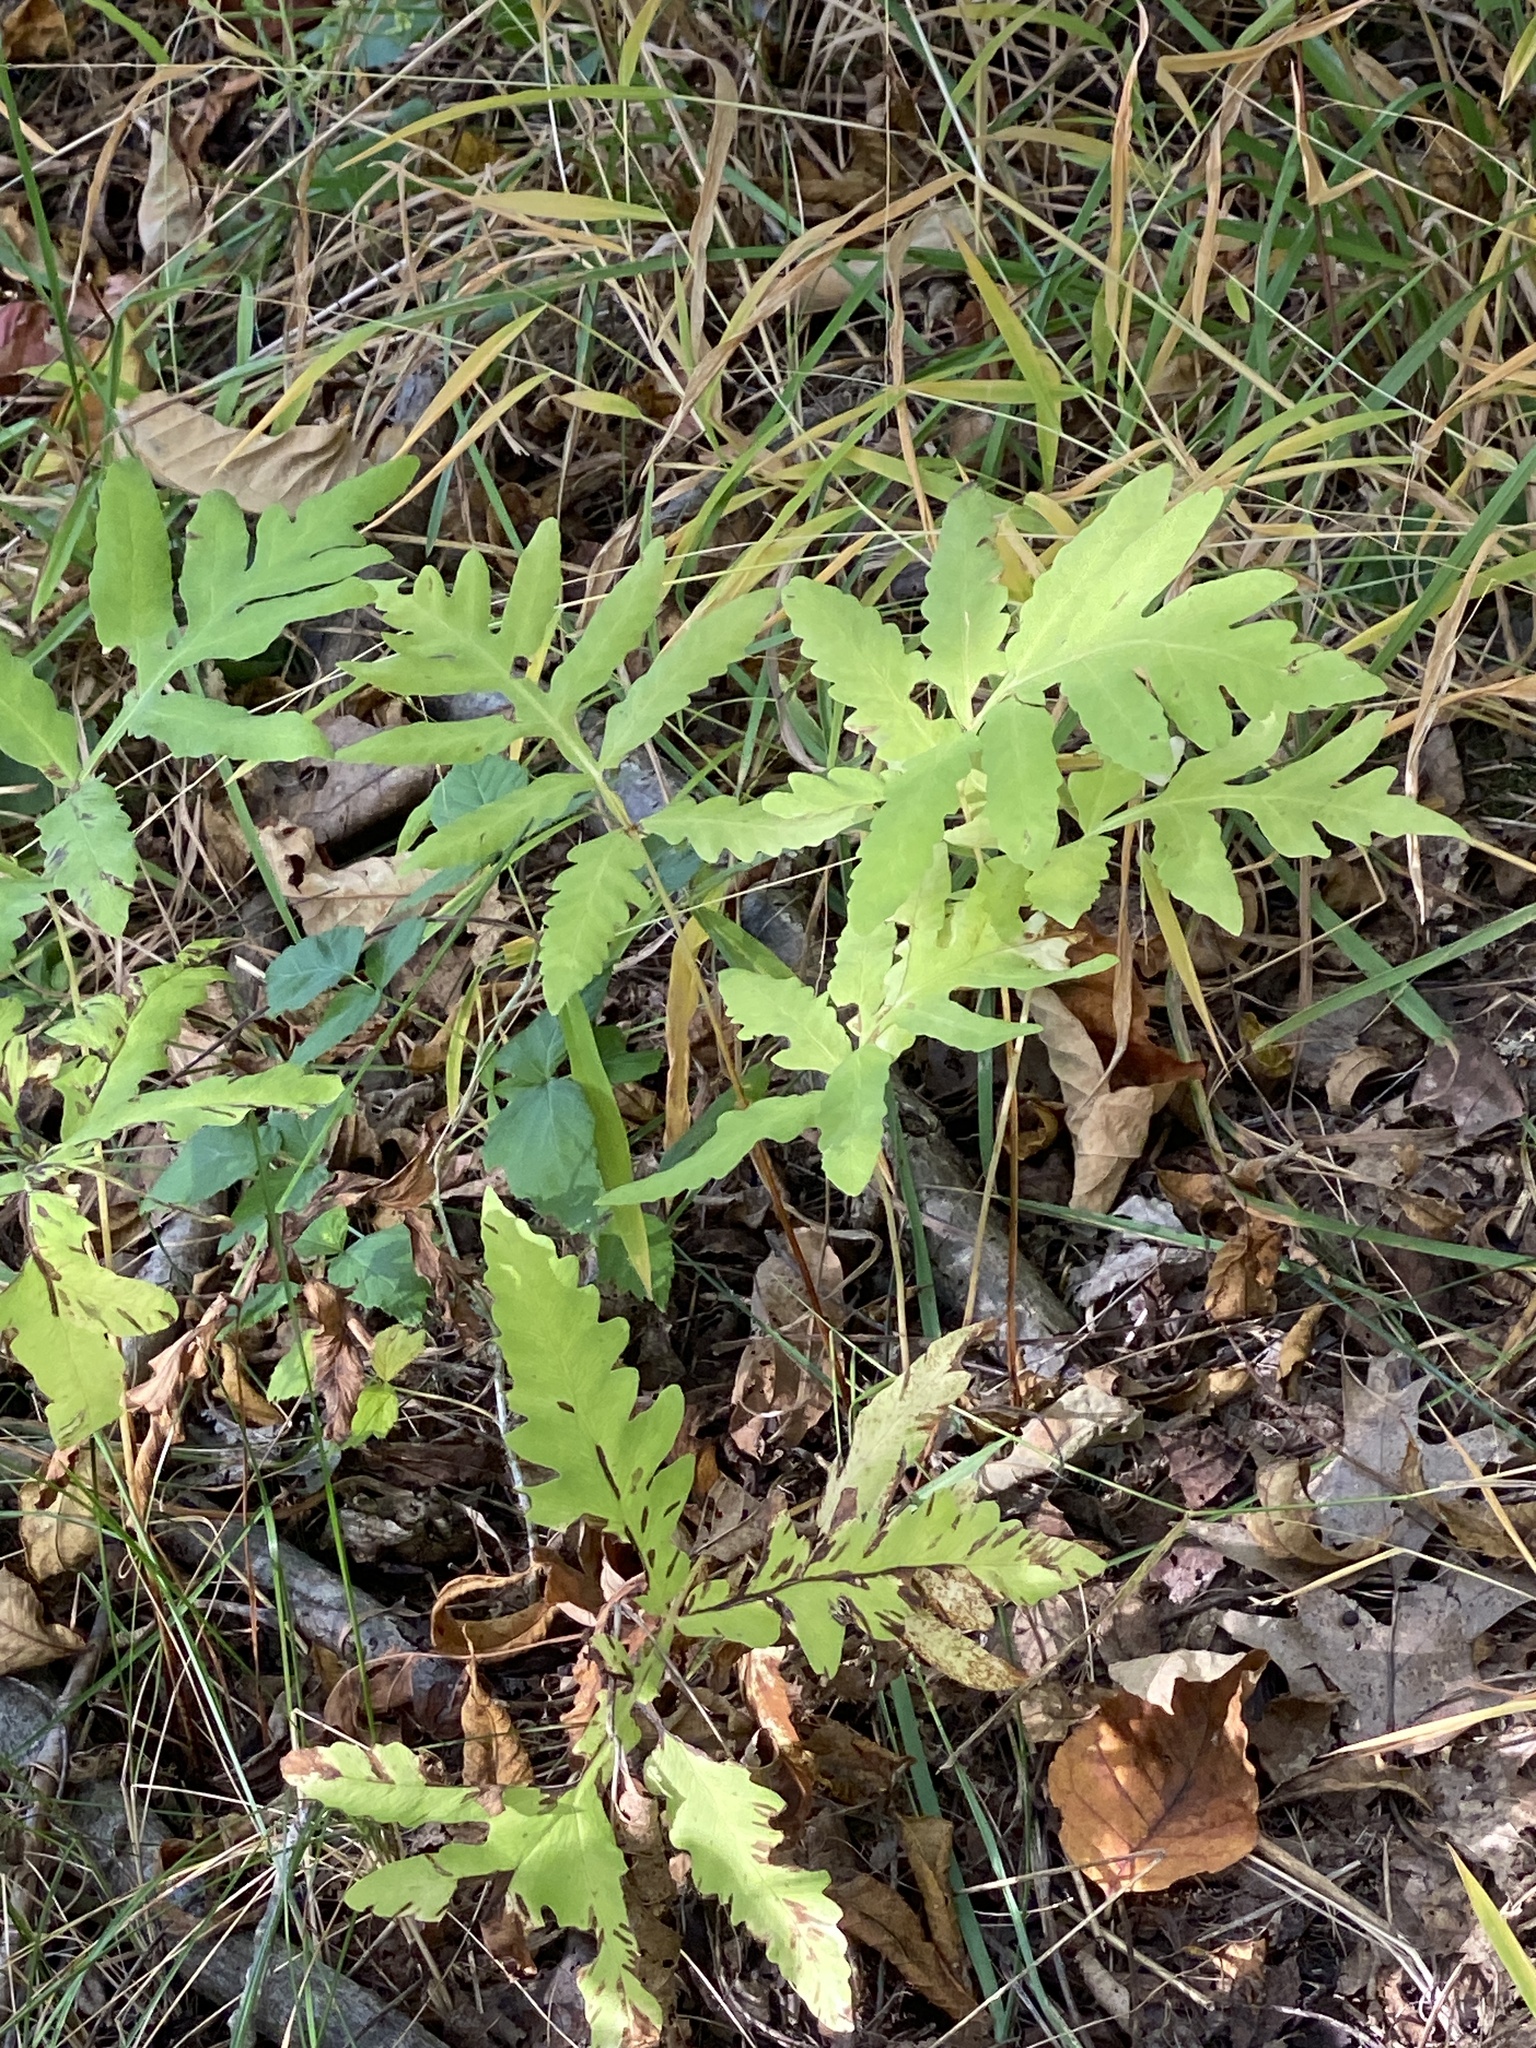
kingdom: Plantae
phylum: Tracheophyta
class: Polypodiopsida
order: Polypodiales
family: Onocleaceae
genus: Onoclea
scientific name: Onoclea sensibilis
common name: Sensitive fern
